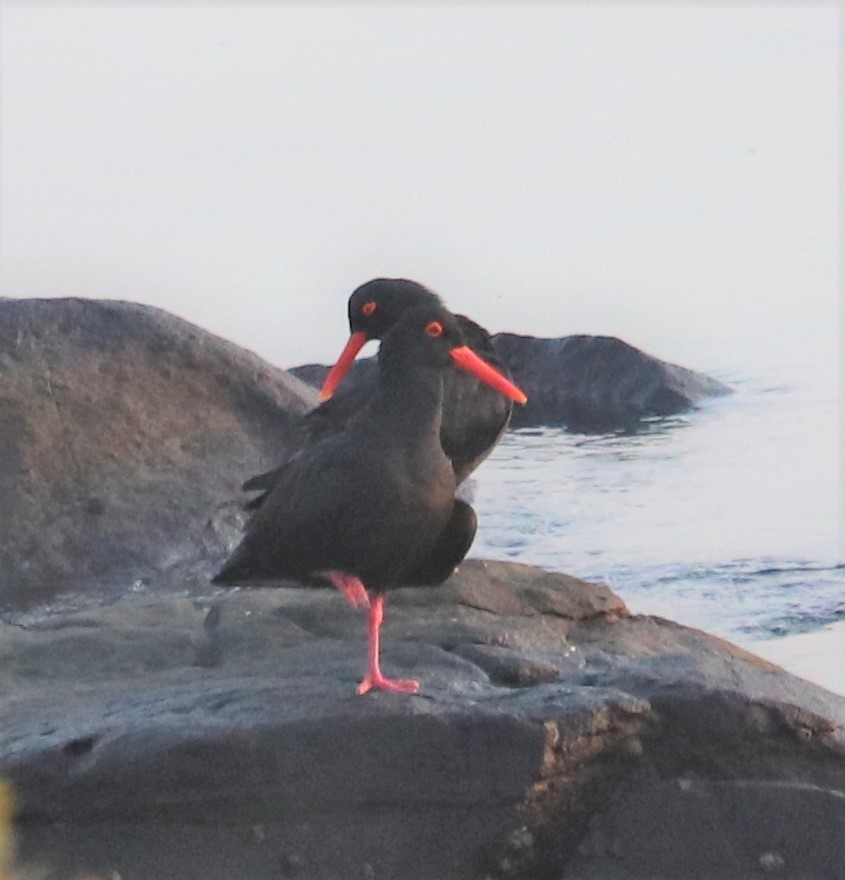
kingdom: Animalia
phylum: Chordata
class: Aves
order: Charadriiformes
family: Haematopodidae
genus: Haematopus
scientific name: Haematopus moquini
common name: African oystercatcher
